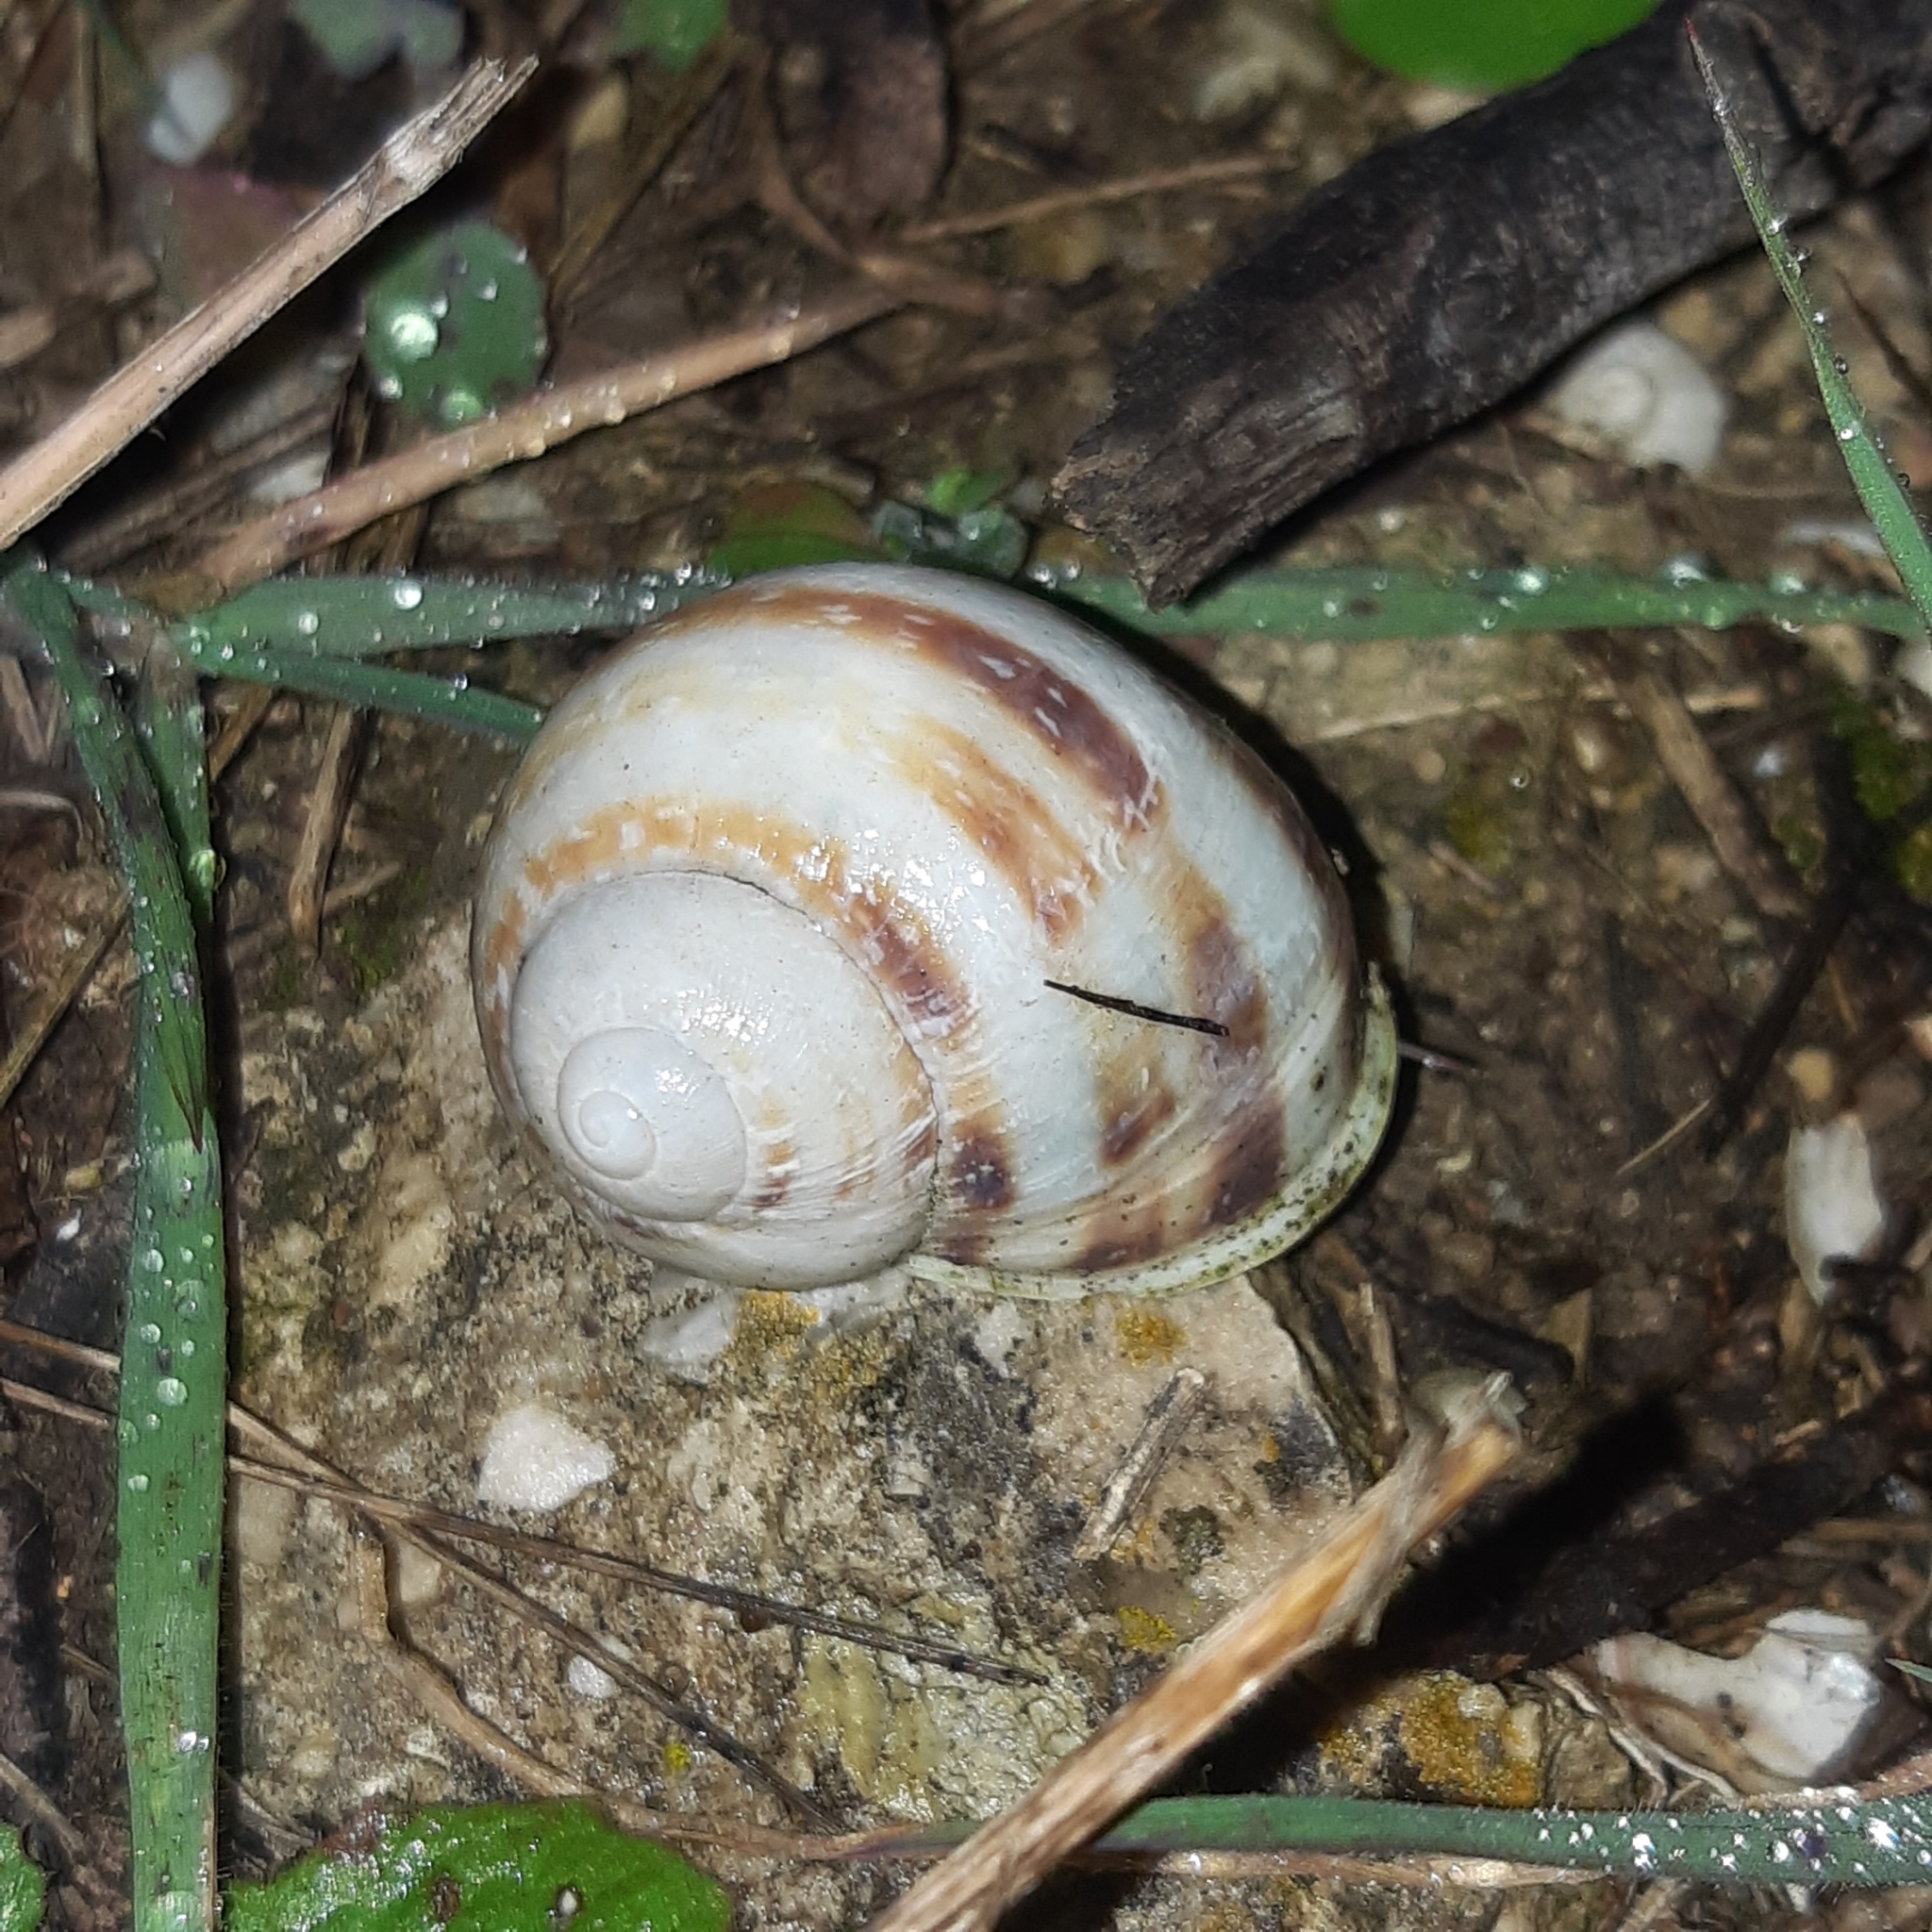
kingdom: Animalia
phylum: Mollusca
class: Gastropoda
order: Stylommatophora
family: Helicidae
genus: Cornu
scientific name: Cornu aspersum
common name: Brown garden snail
